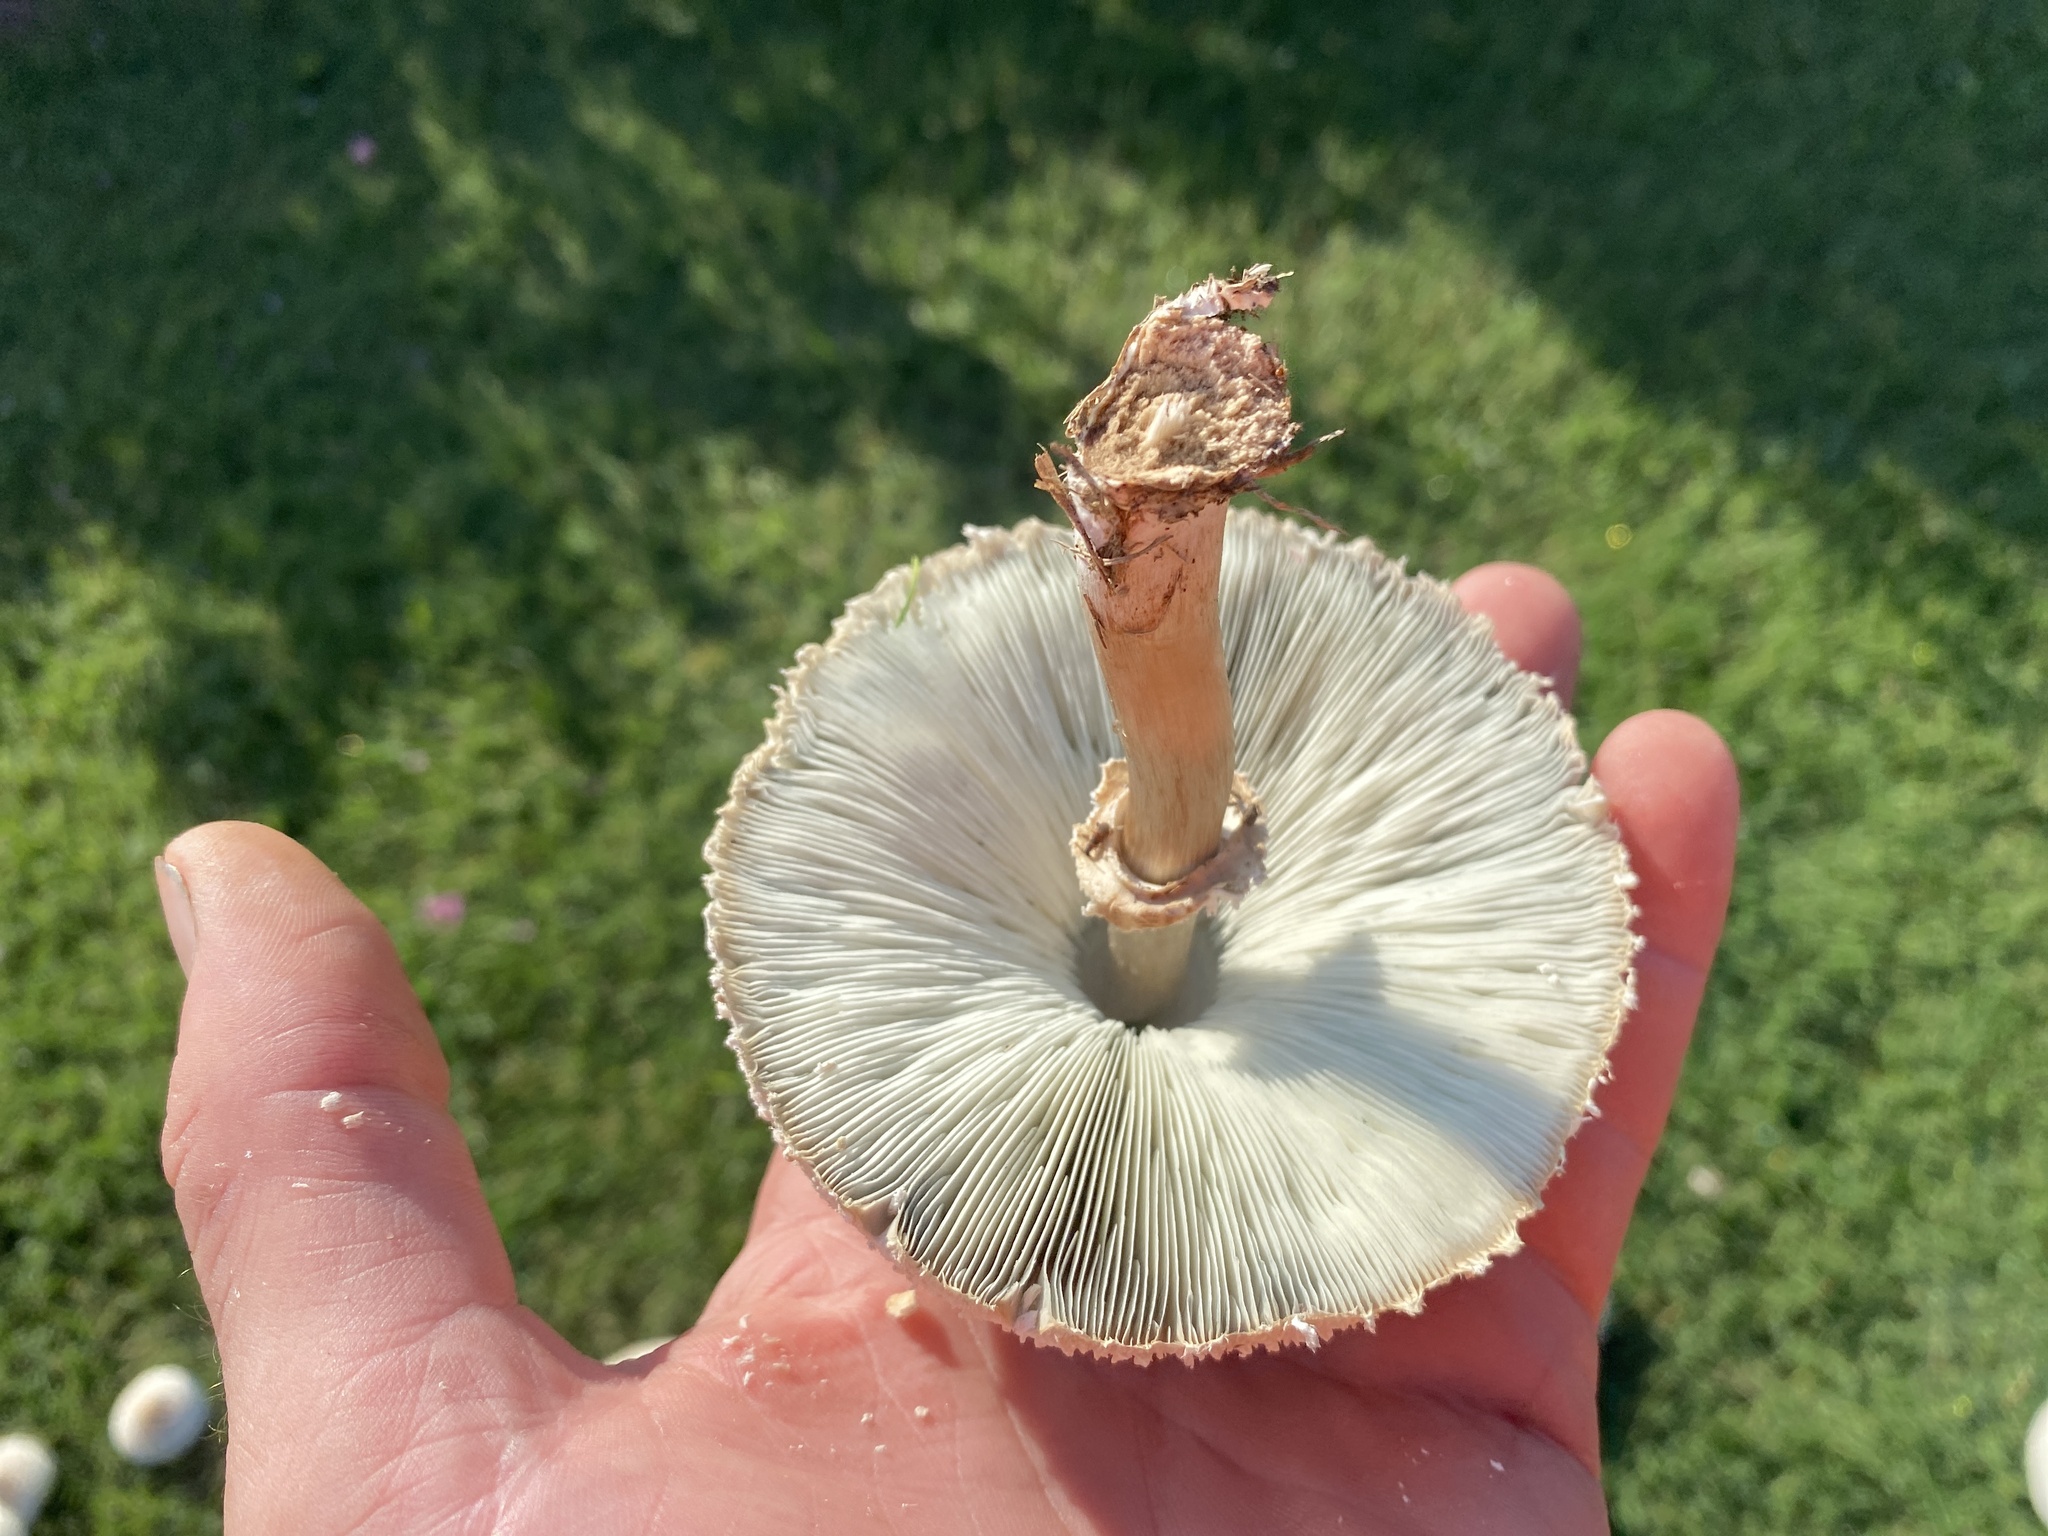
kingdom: Fungi
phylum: Basidiomycota
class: Agaricomycetes
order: Agaricales
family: Agaricaceae
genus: Chlorophyllum
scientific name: Chlorophyllum molybdites
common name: False parasol
